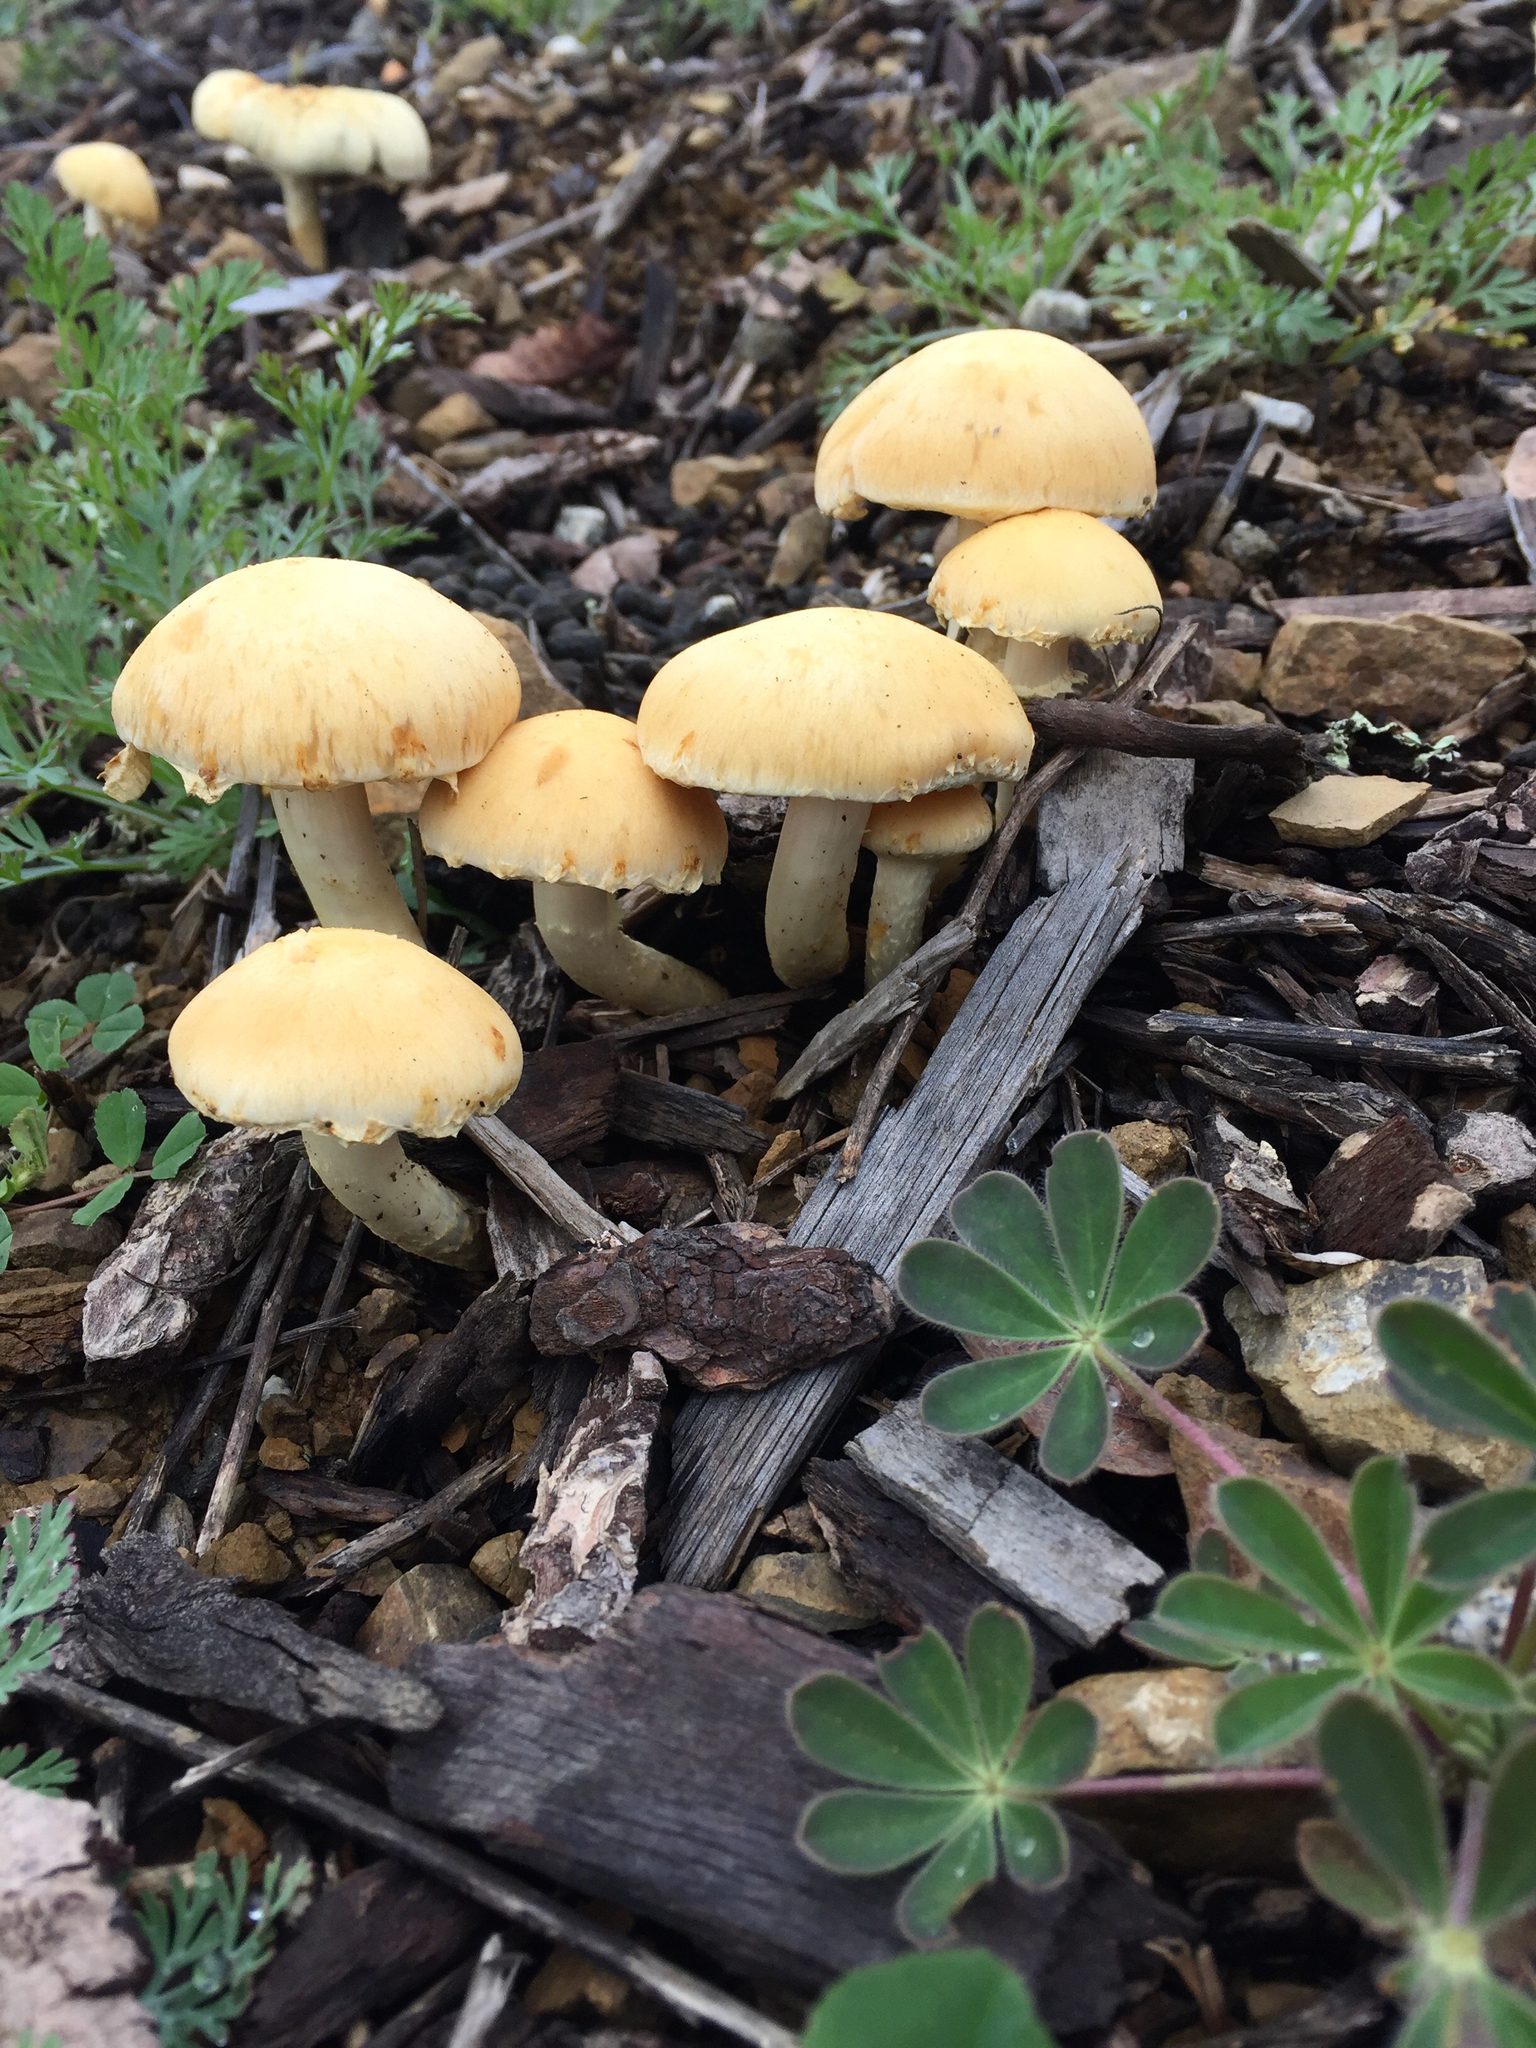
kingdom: Fungi
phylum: Basidiomycota
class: Agaricomycetes
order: Agaricales
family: Strophariaceae
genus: Leratiomyces
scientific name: Leratiomyces percevalii
